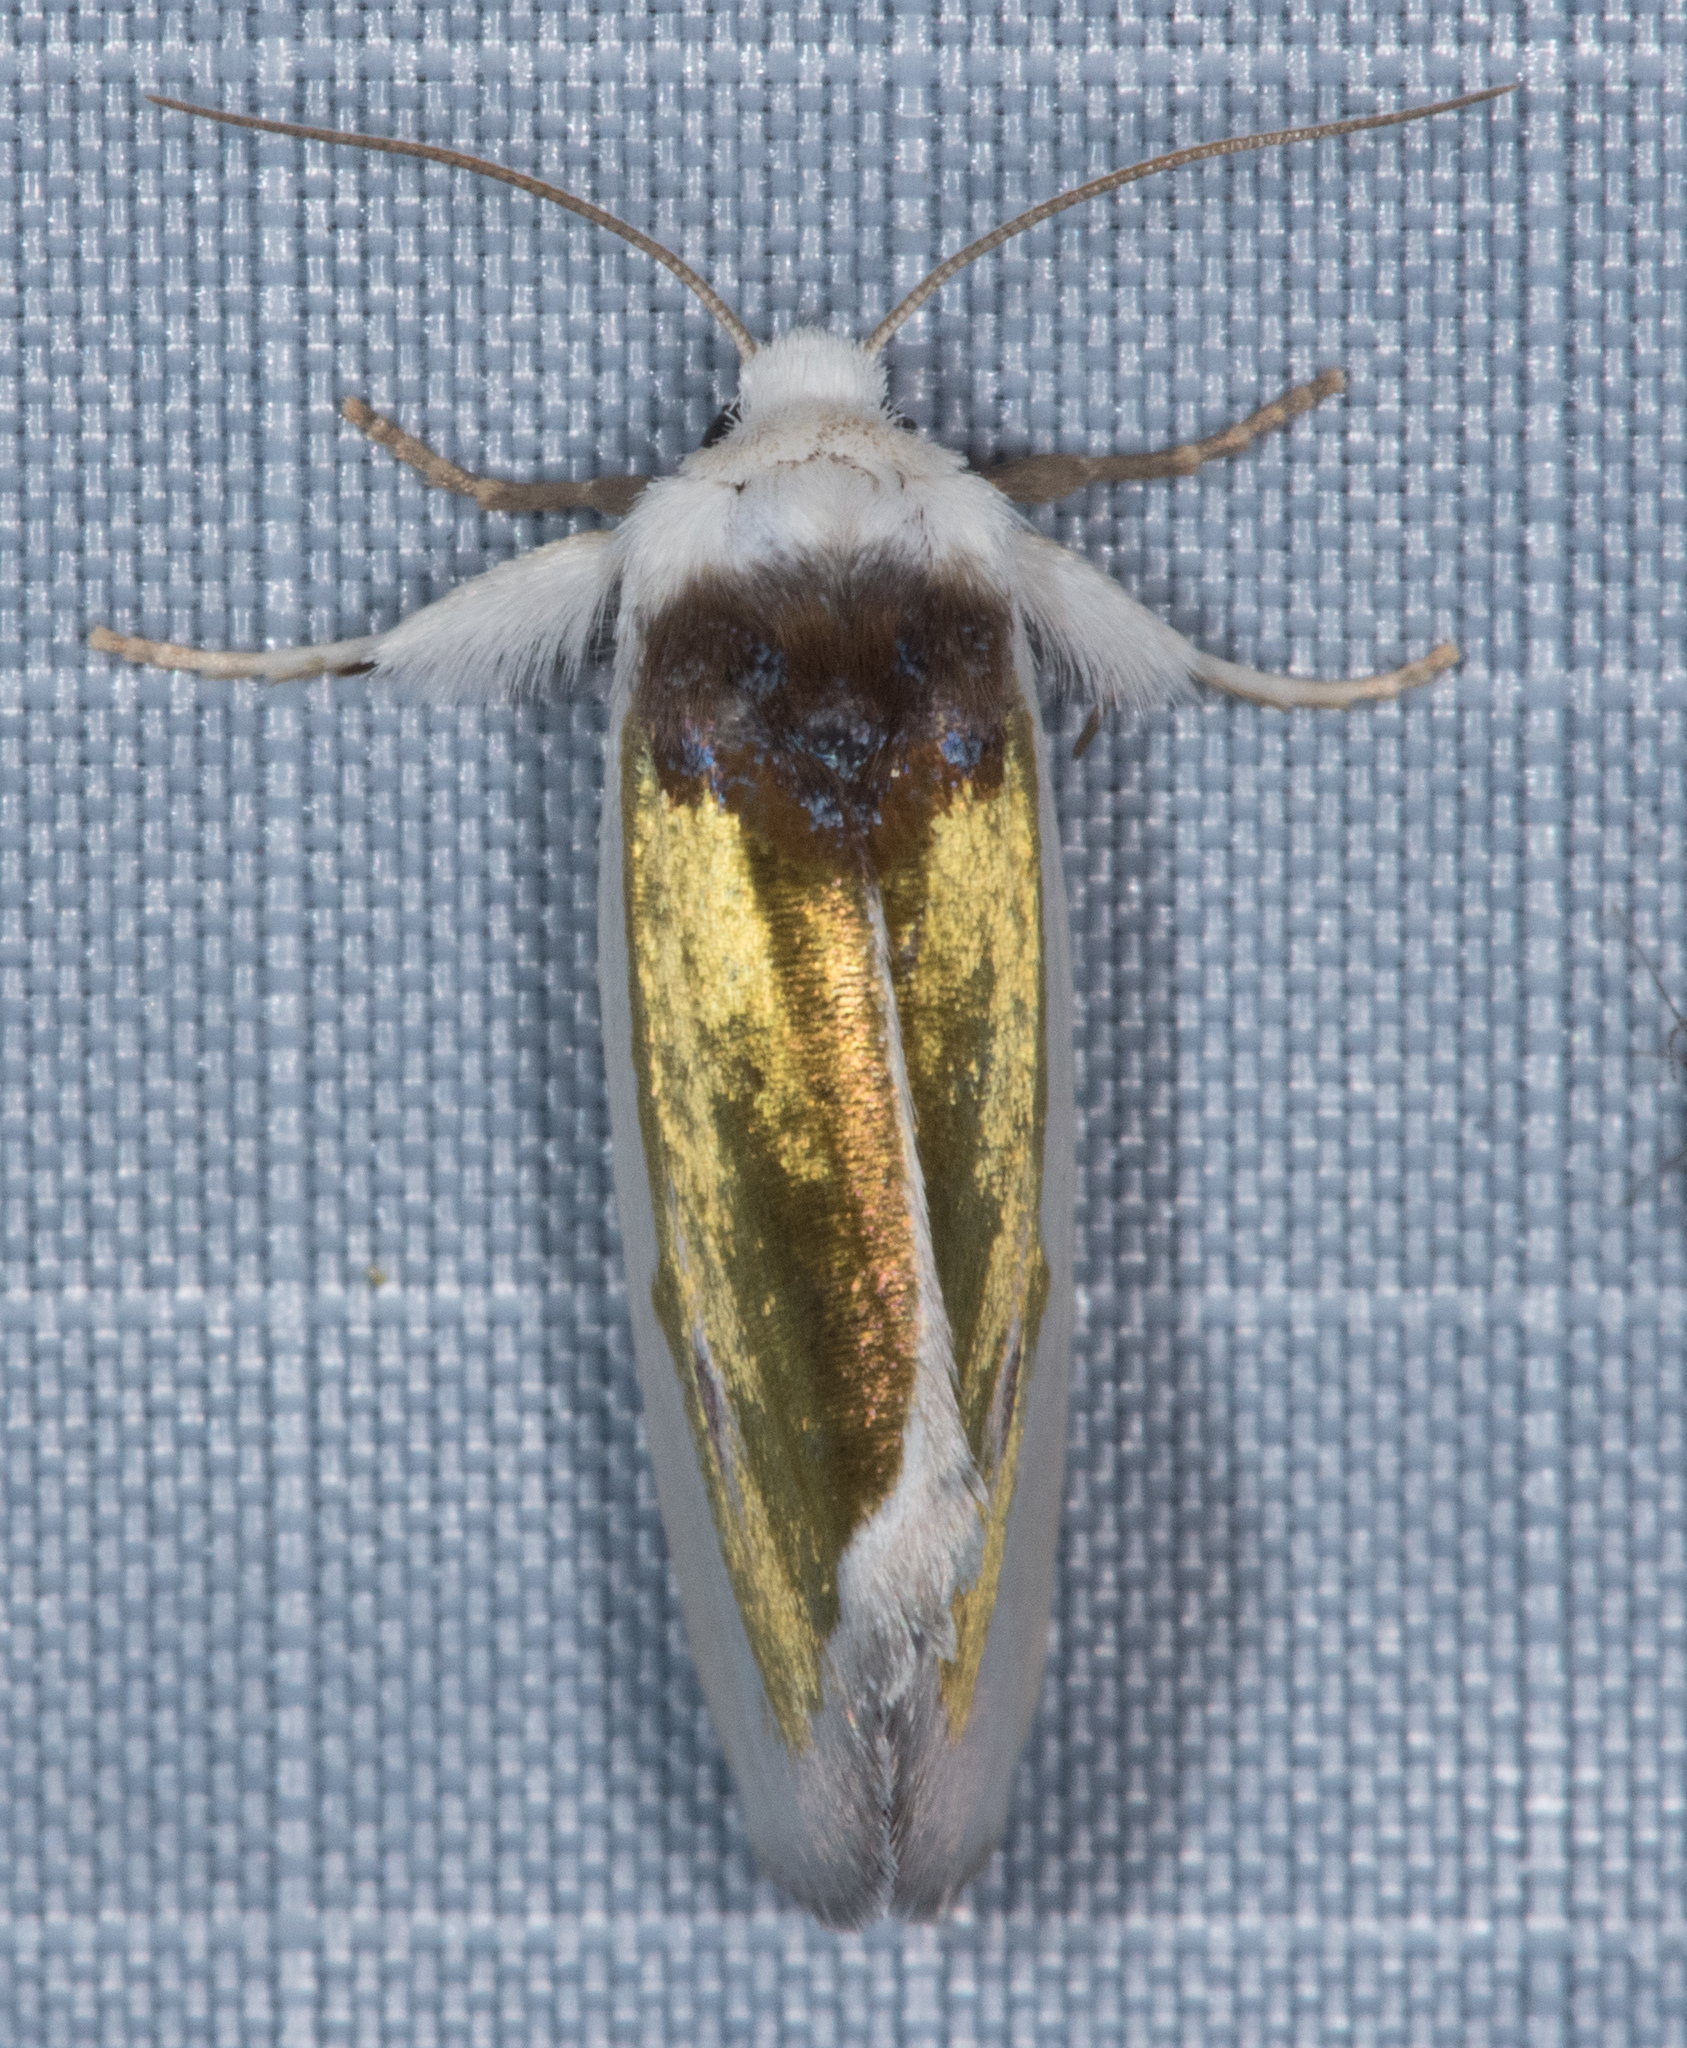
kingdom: Animalia
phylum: Arthropoda
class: Insecta
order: Lepidoptera
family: Noctuidae
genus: Neumoegenia
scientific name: Neumoegenia poetica
